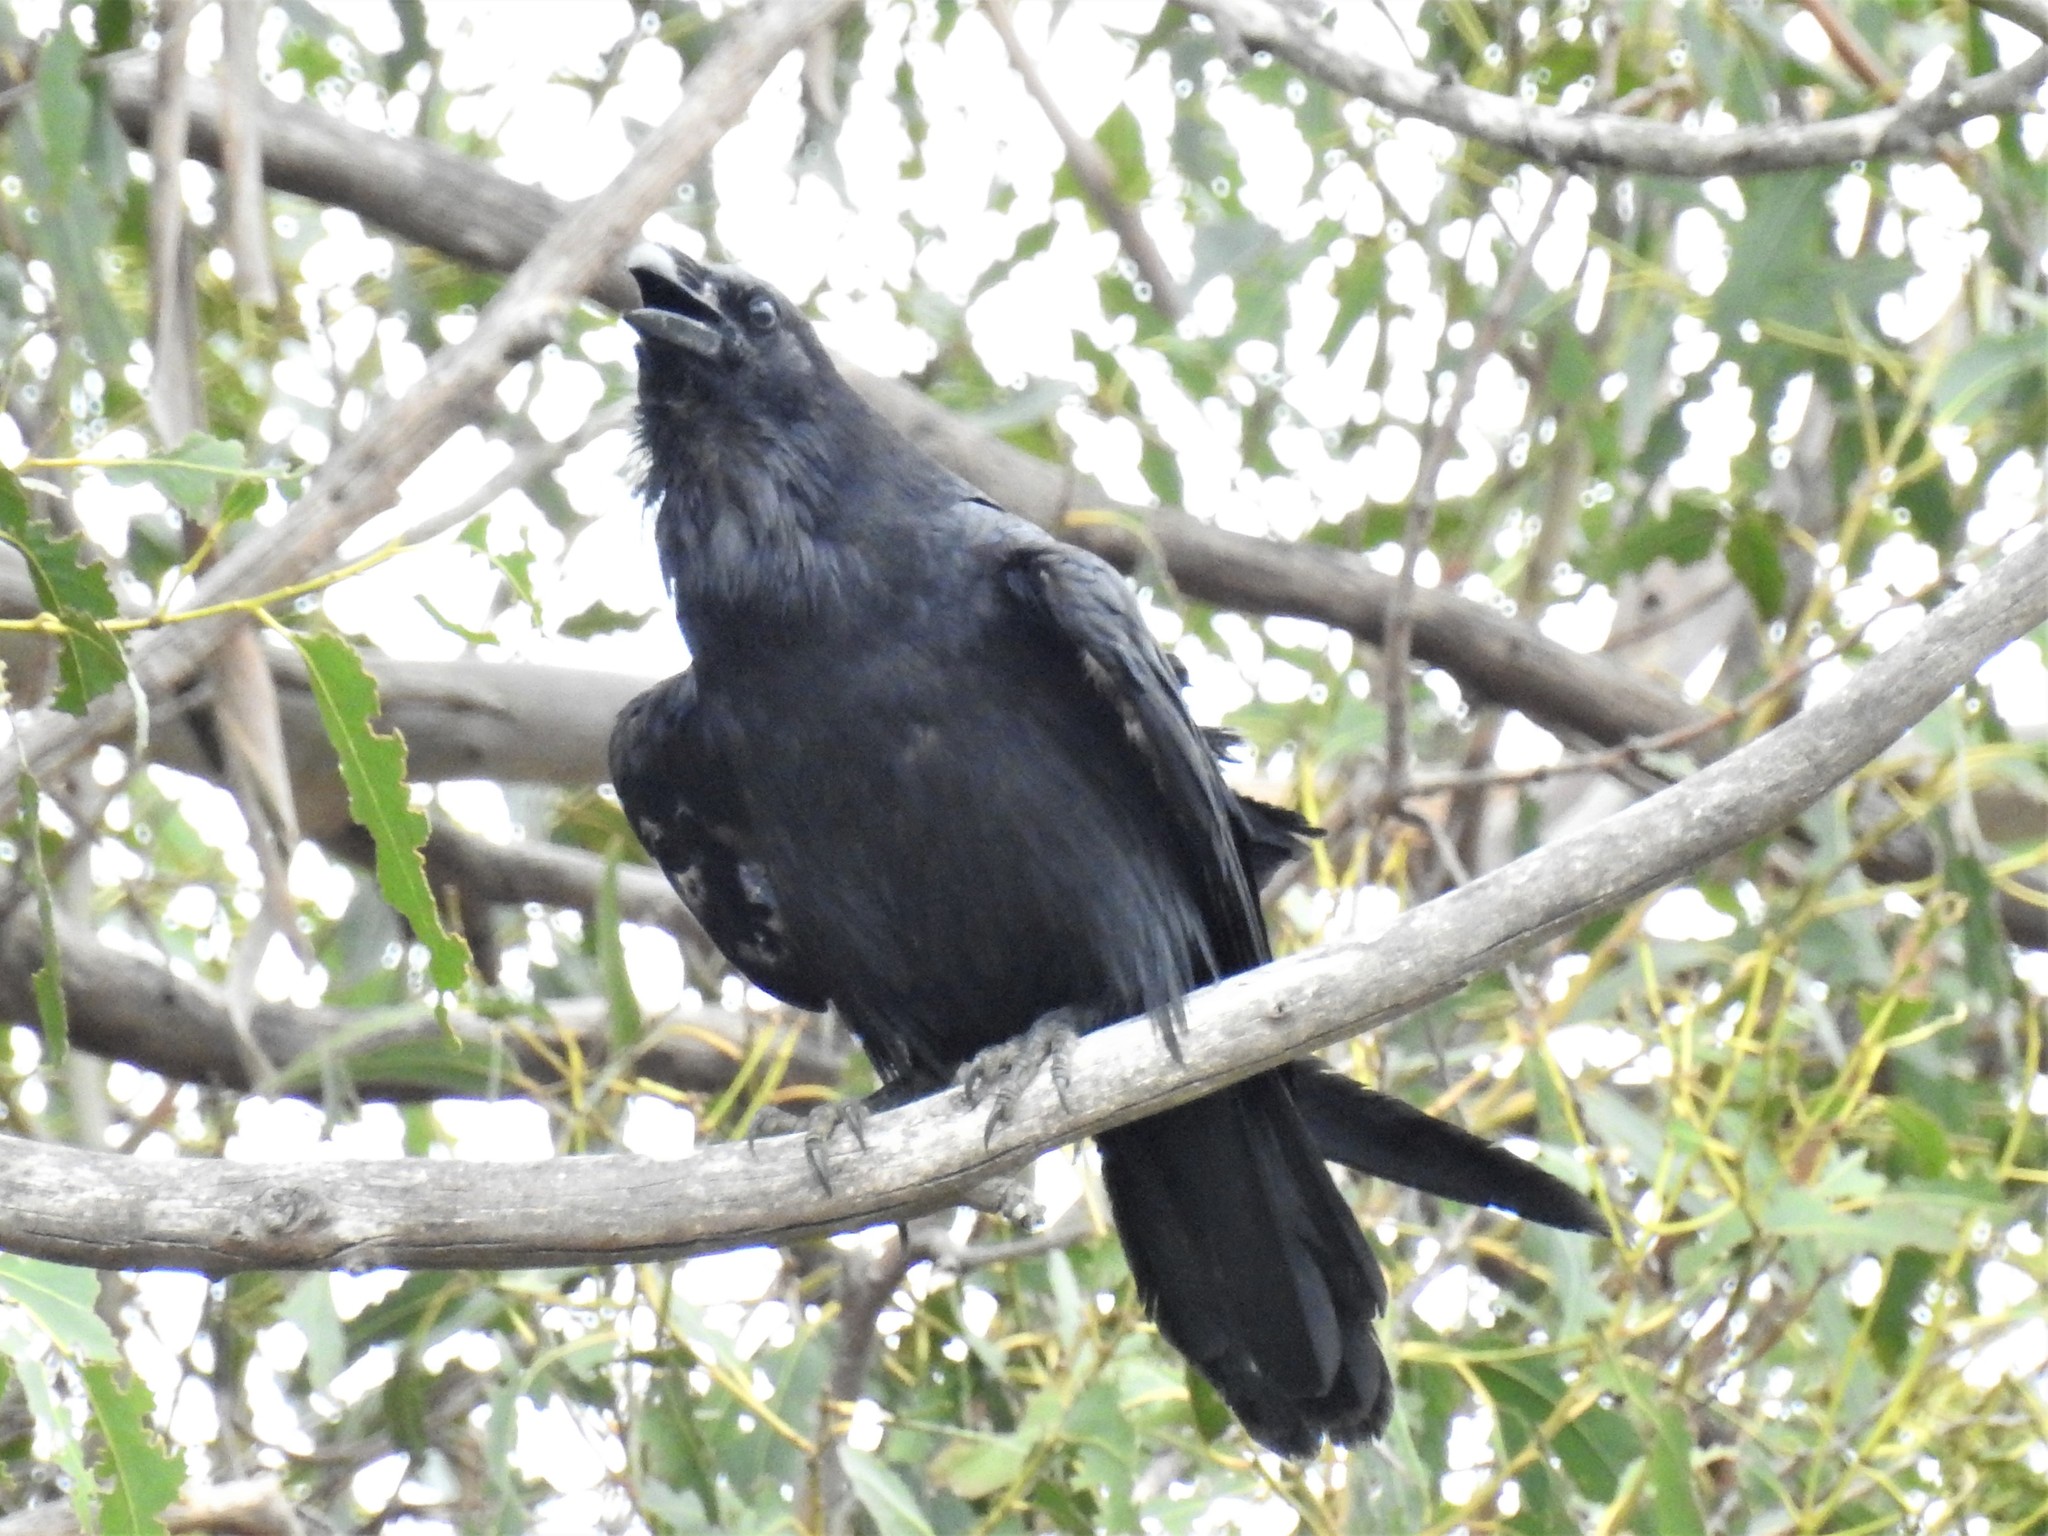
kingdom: Animalia
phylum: Chordata
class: Aves
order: Passeriformes
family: Corvidae
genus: Corvus
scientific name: Corvus corax
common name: Common raven
